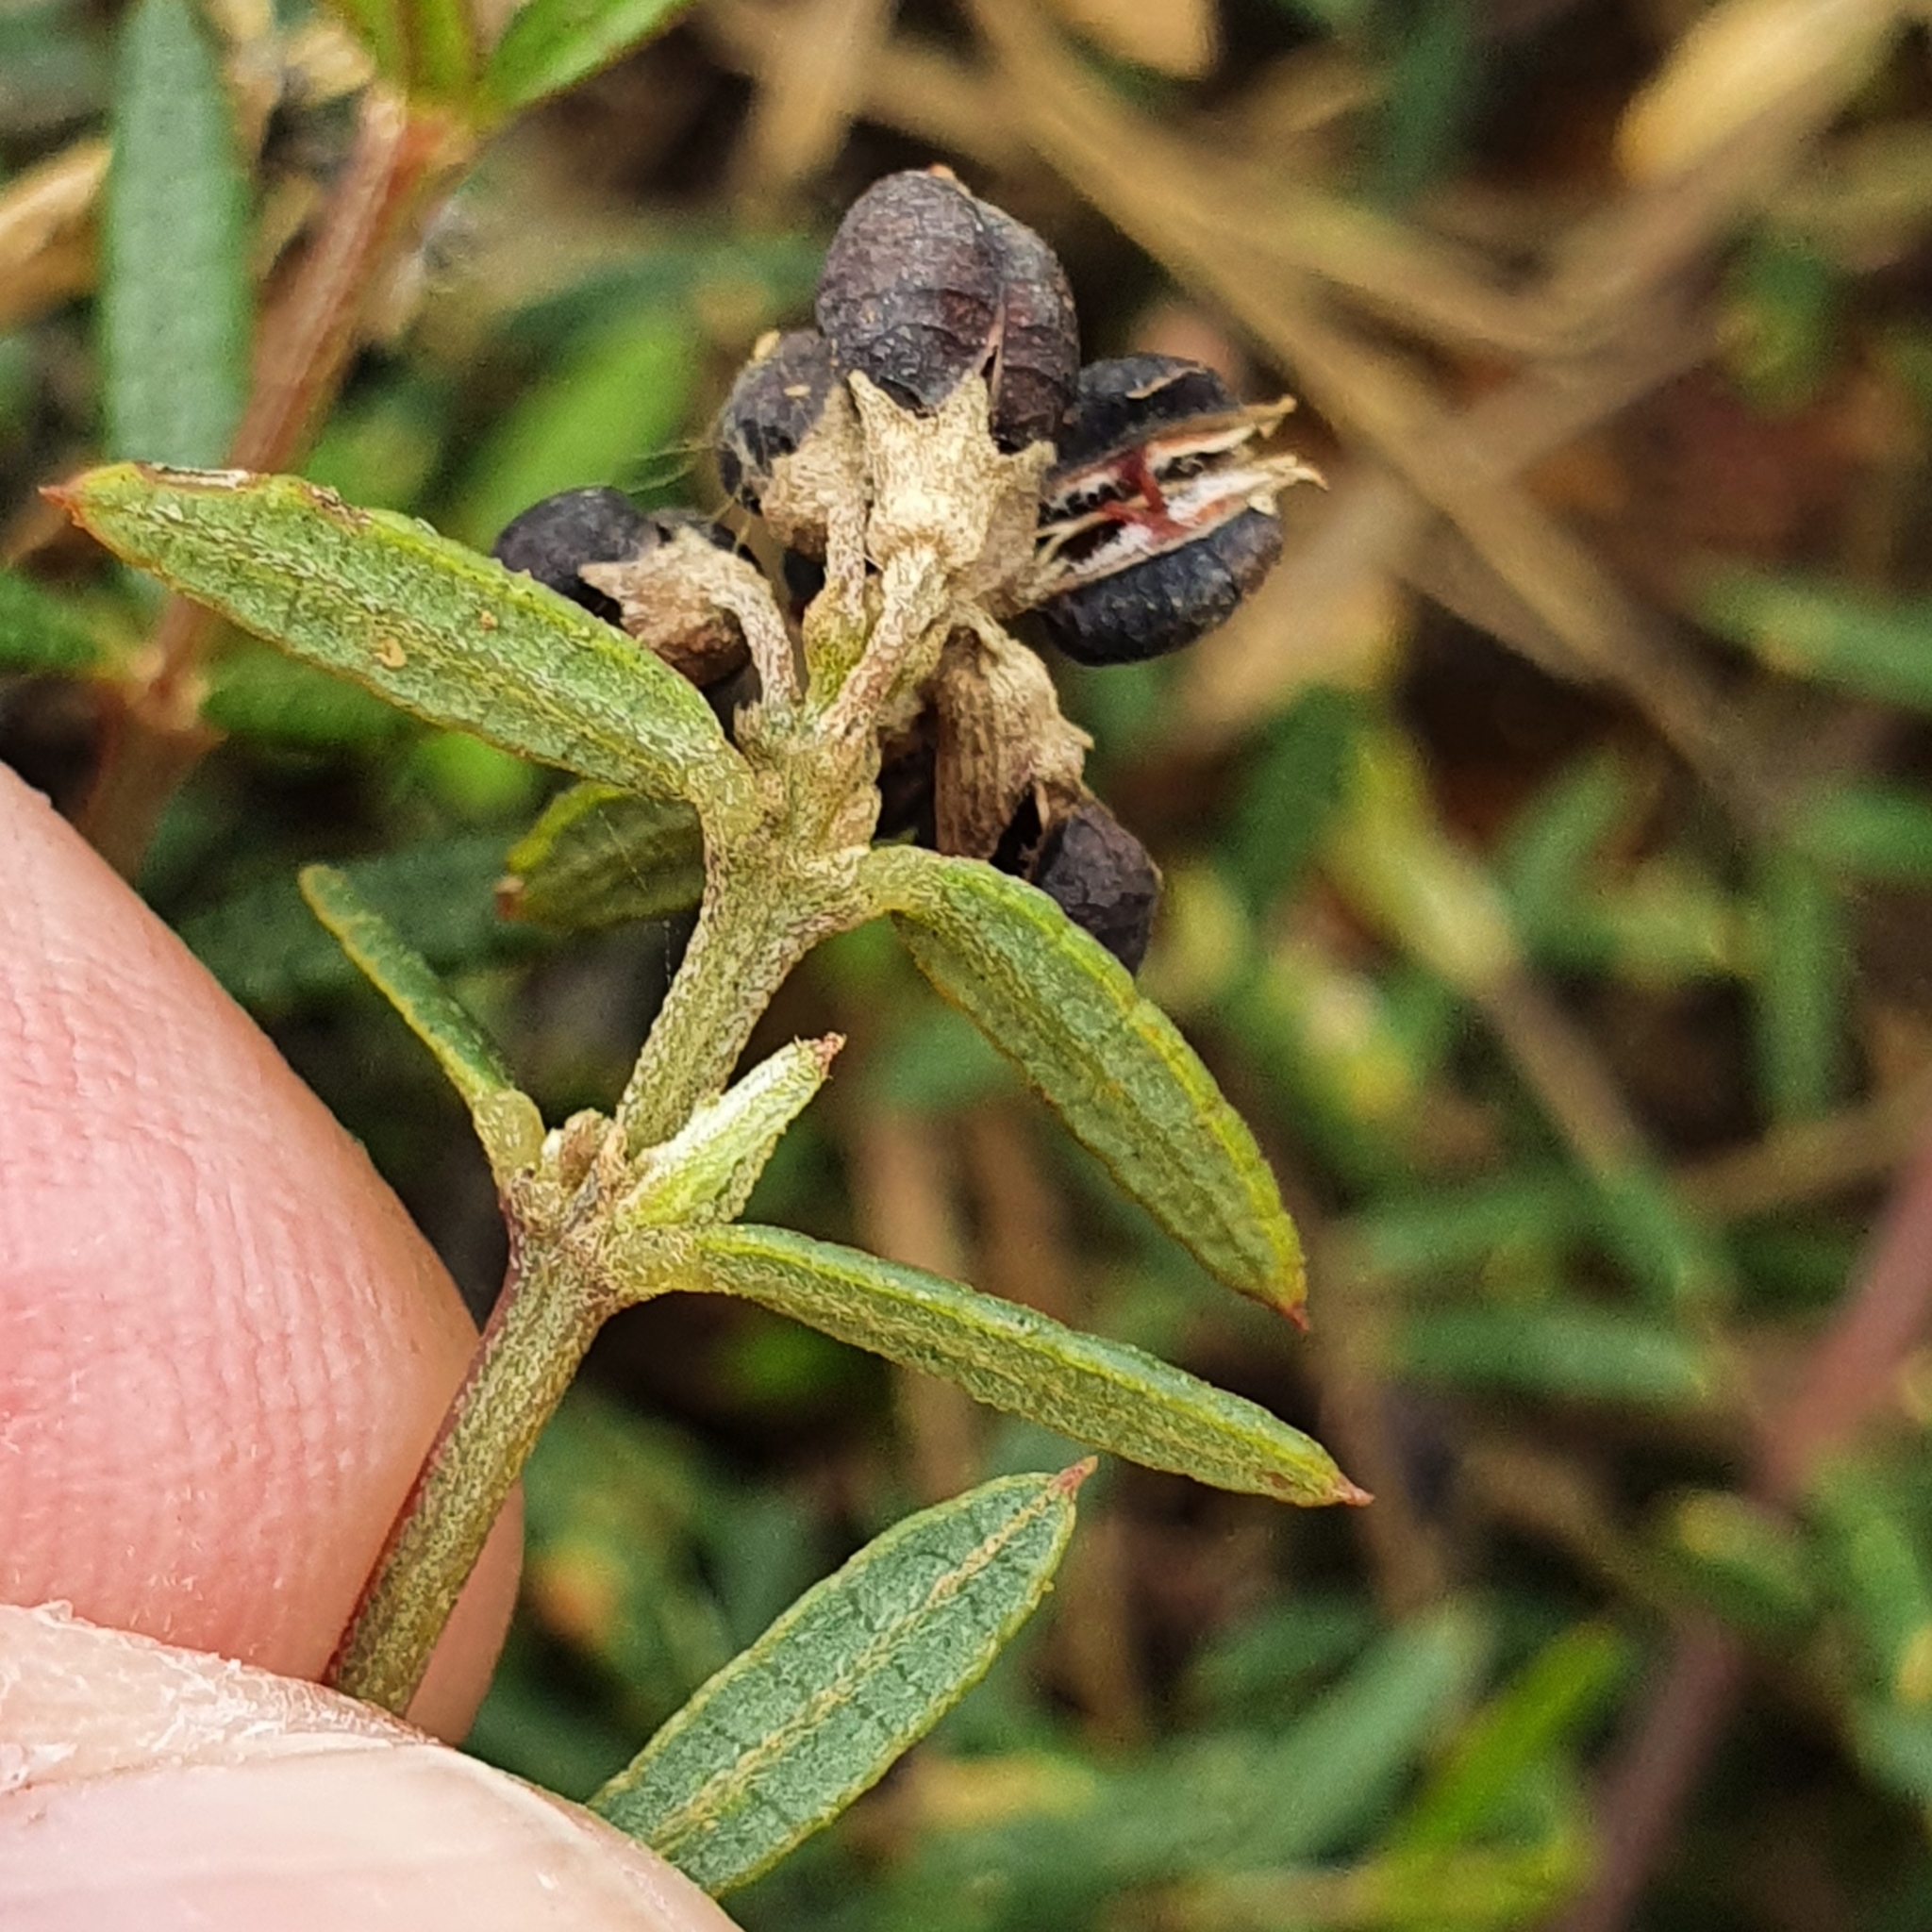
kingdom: Plantae
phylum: Tracheophyta
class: Magnoliopsida
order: Fabales
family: Fabaceae
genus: Mirbelia
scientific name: Mirbelia rubiifolia
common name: Heathy mirbelia
